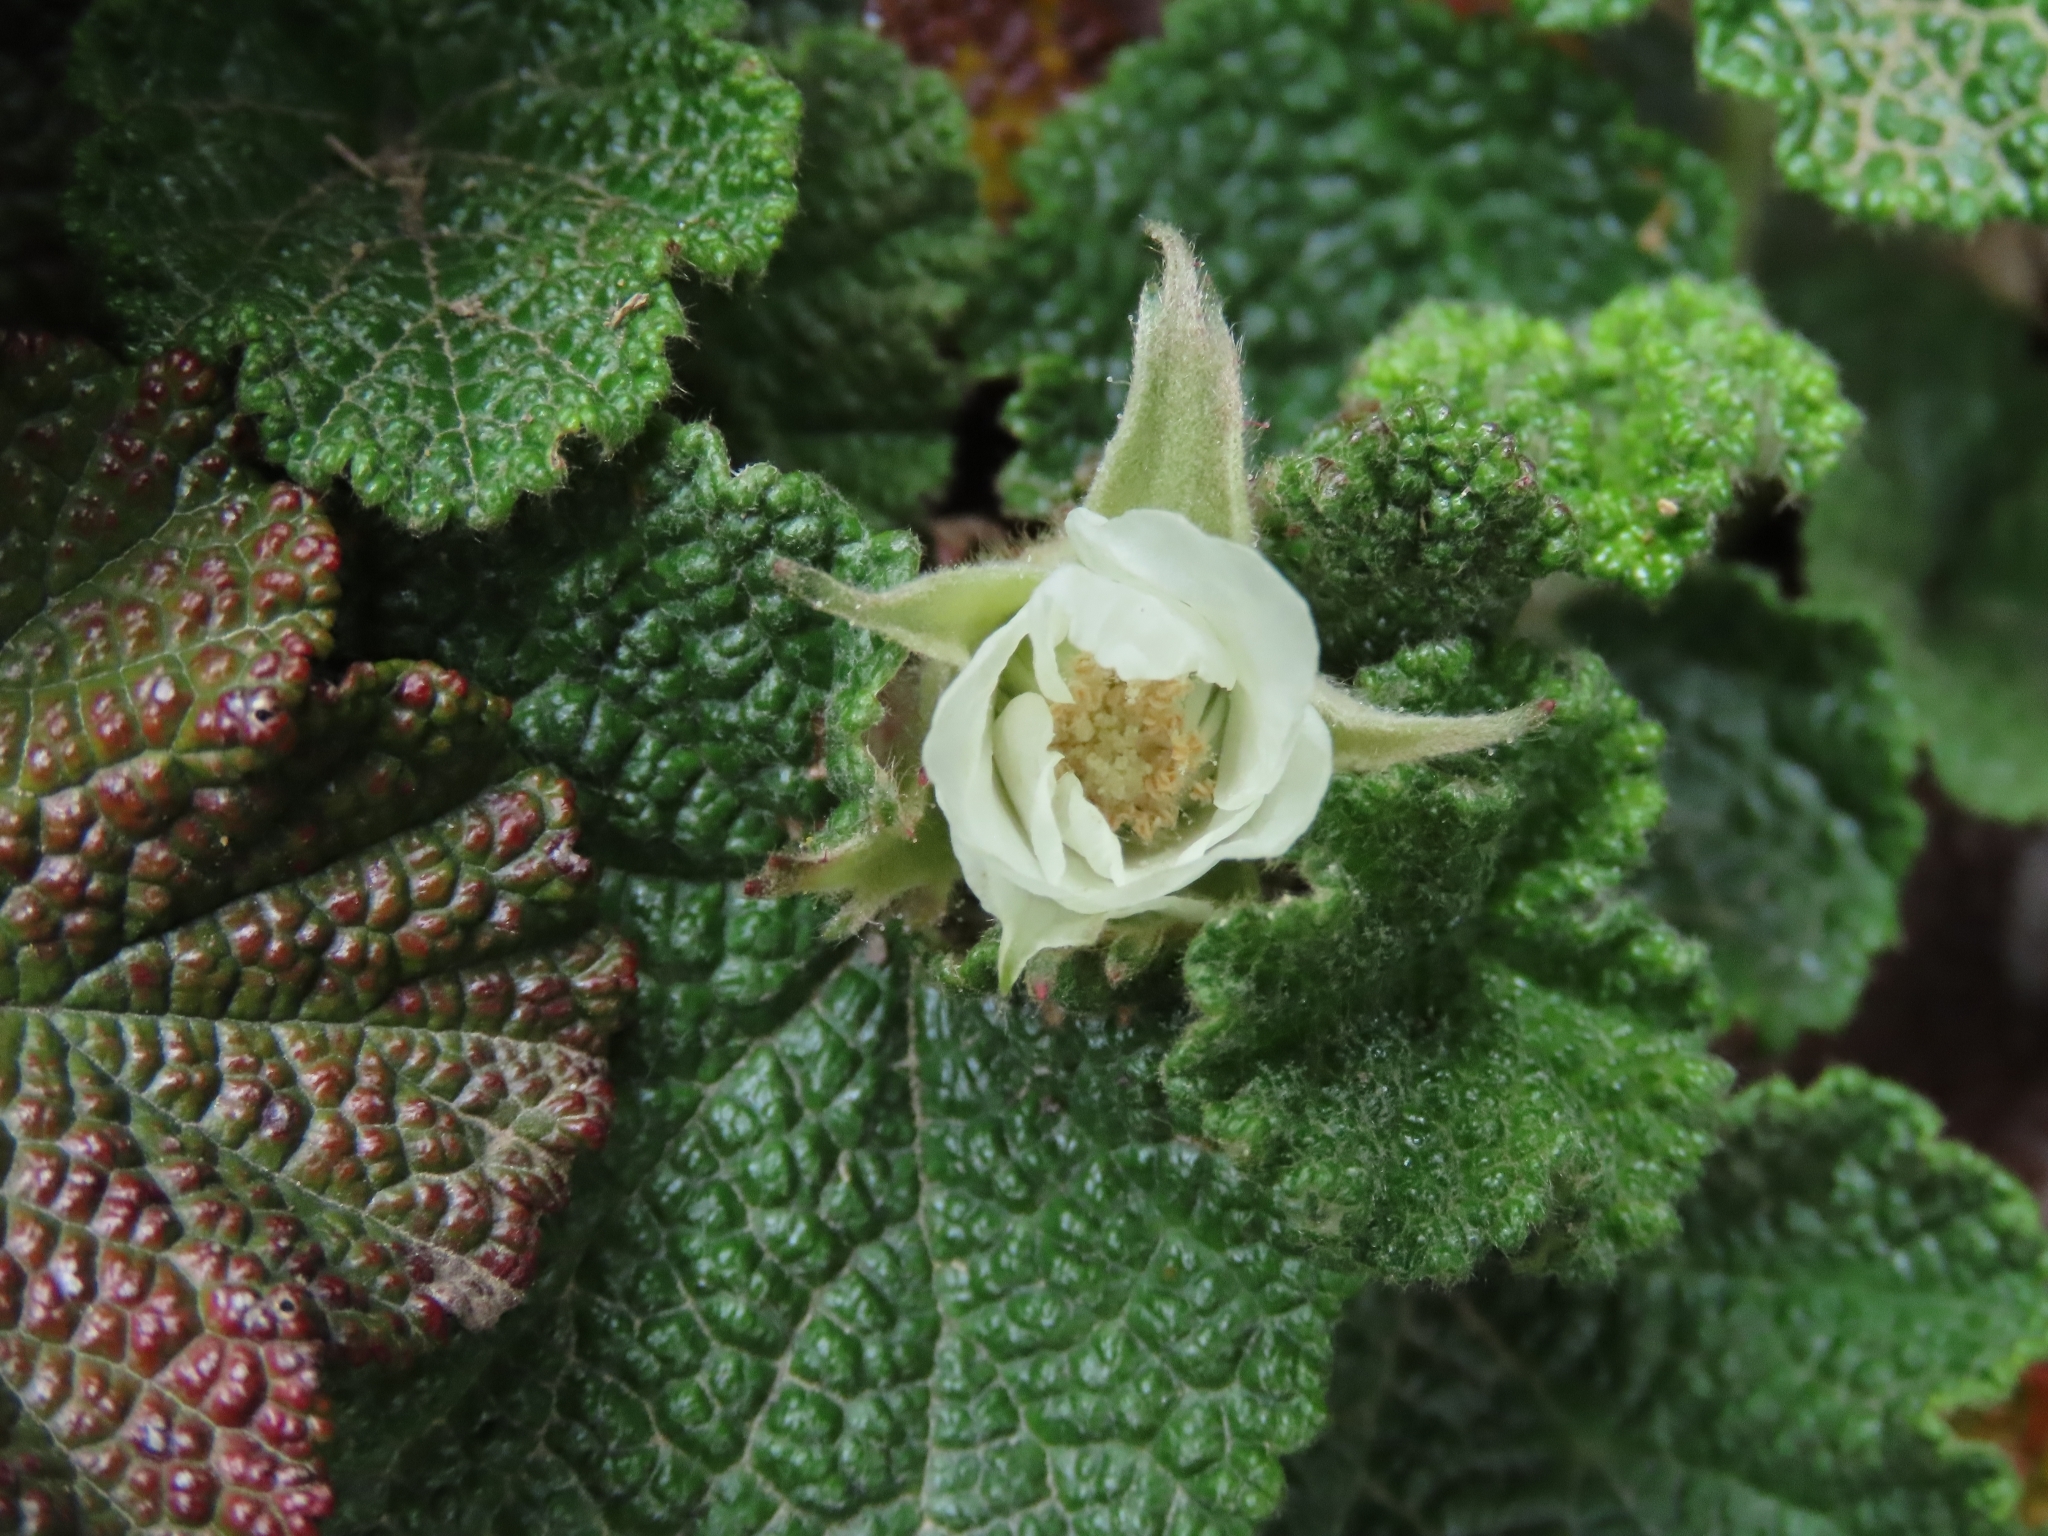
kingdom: Plantae
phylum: Tracheophyta
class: Magnoliopsida
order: Rosales
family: Rosaceae
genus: Rubus
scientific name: Rubus rolfei
